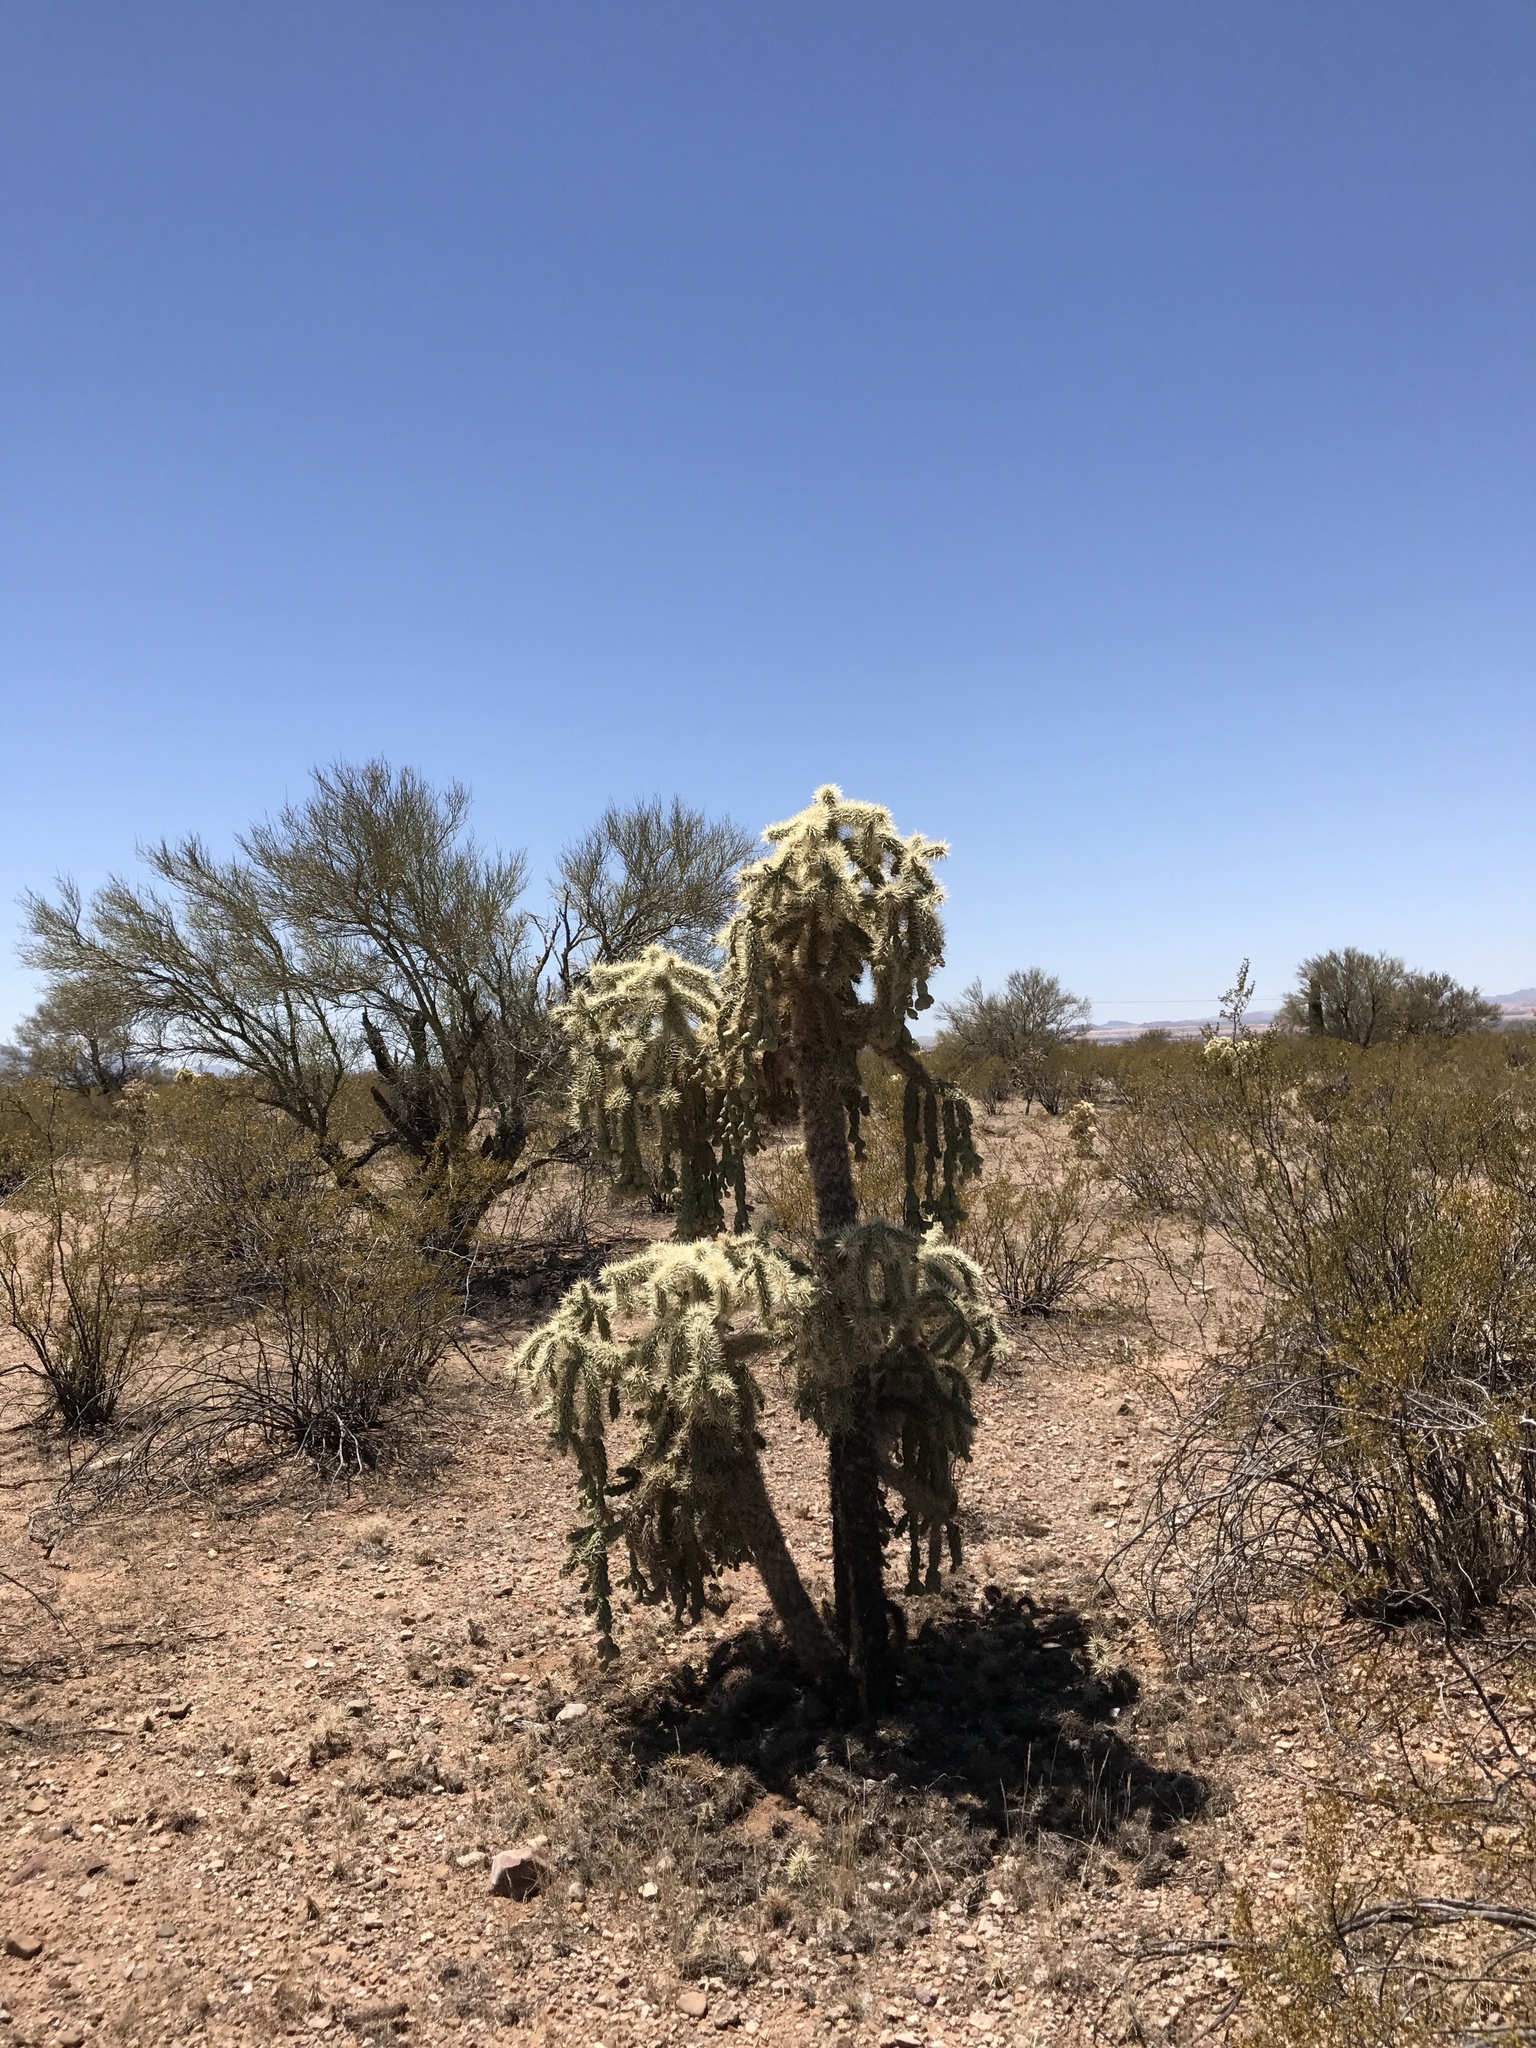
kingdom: Plantae
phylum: Tracheophyta
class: Magnoliopsida
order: Caryophyllales
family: Cactaceae
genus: Cylindropuntia
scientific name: Cylindropuntia fulgida
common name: Jumping cholla
